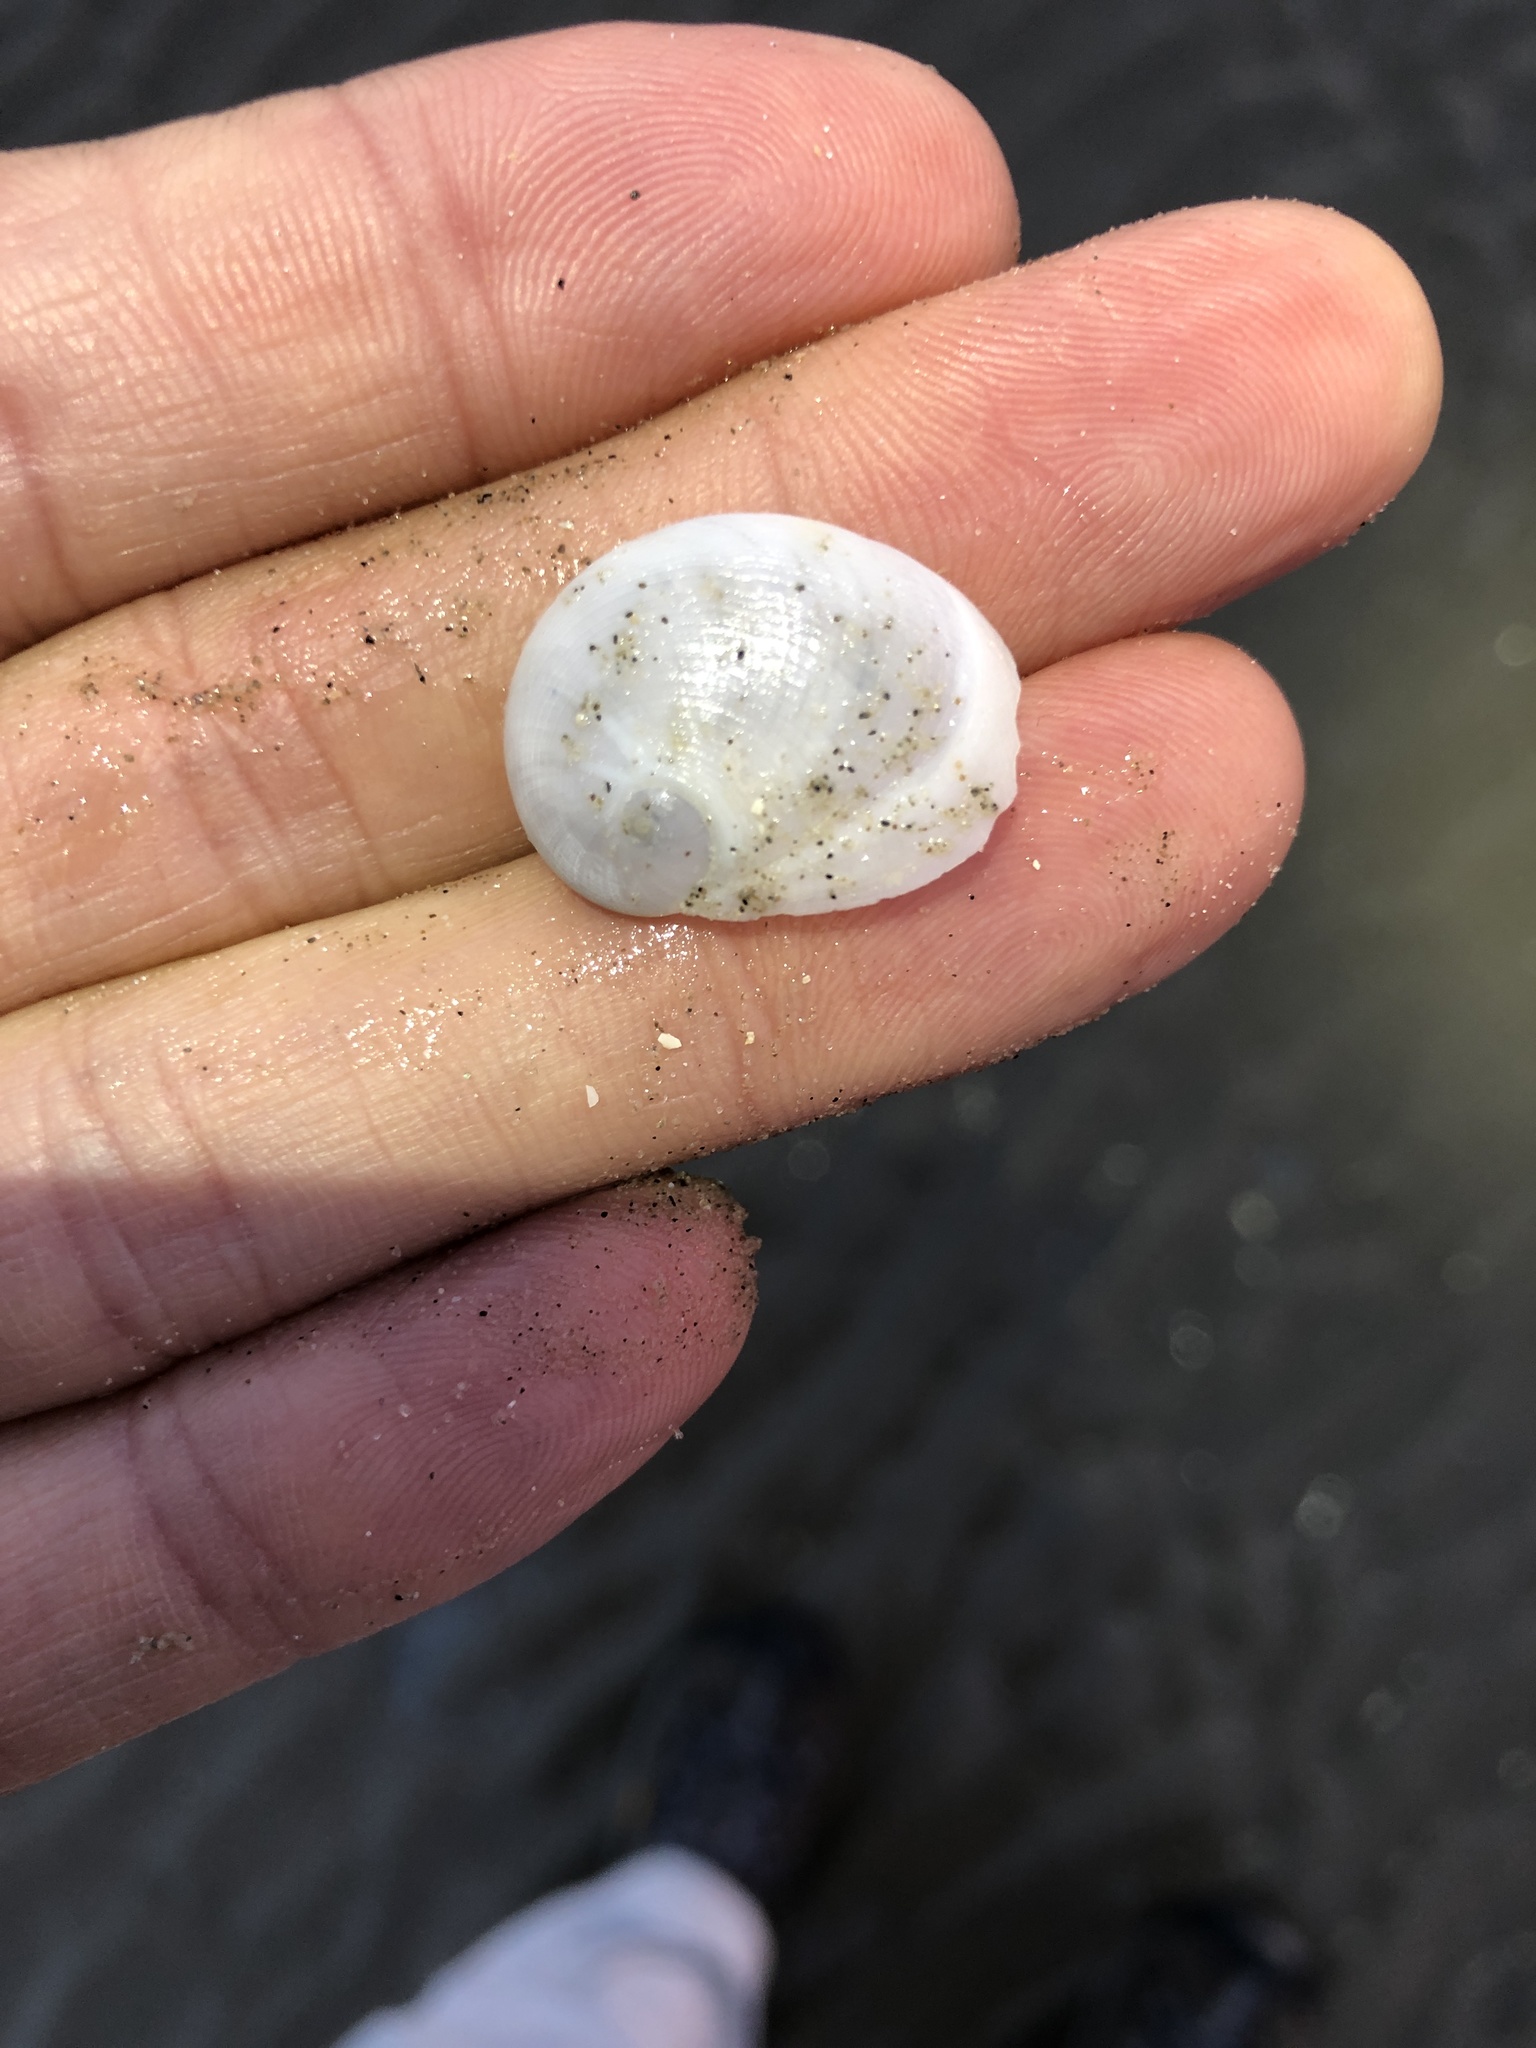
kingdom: Animalia
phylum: Mollusca
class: Gastropoda
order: Littorinimorpha
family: Naticidae
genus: Sinum
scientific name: Sinum perspectivum
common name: White baby ear
